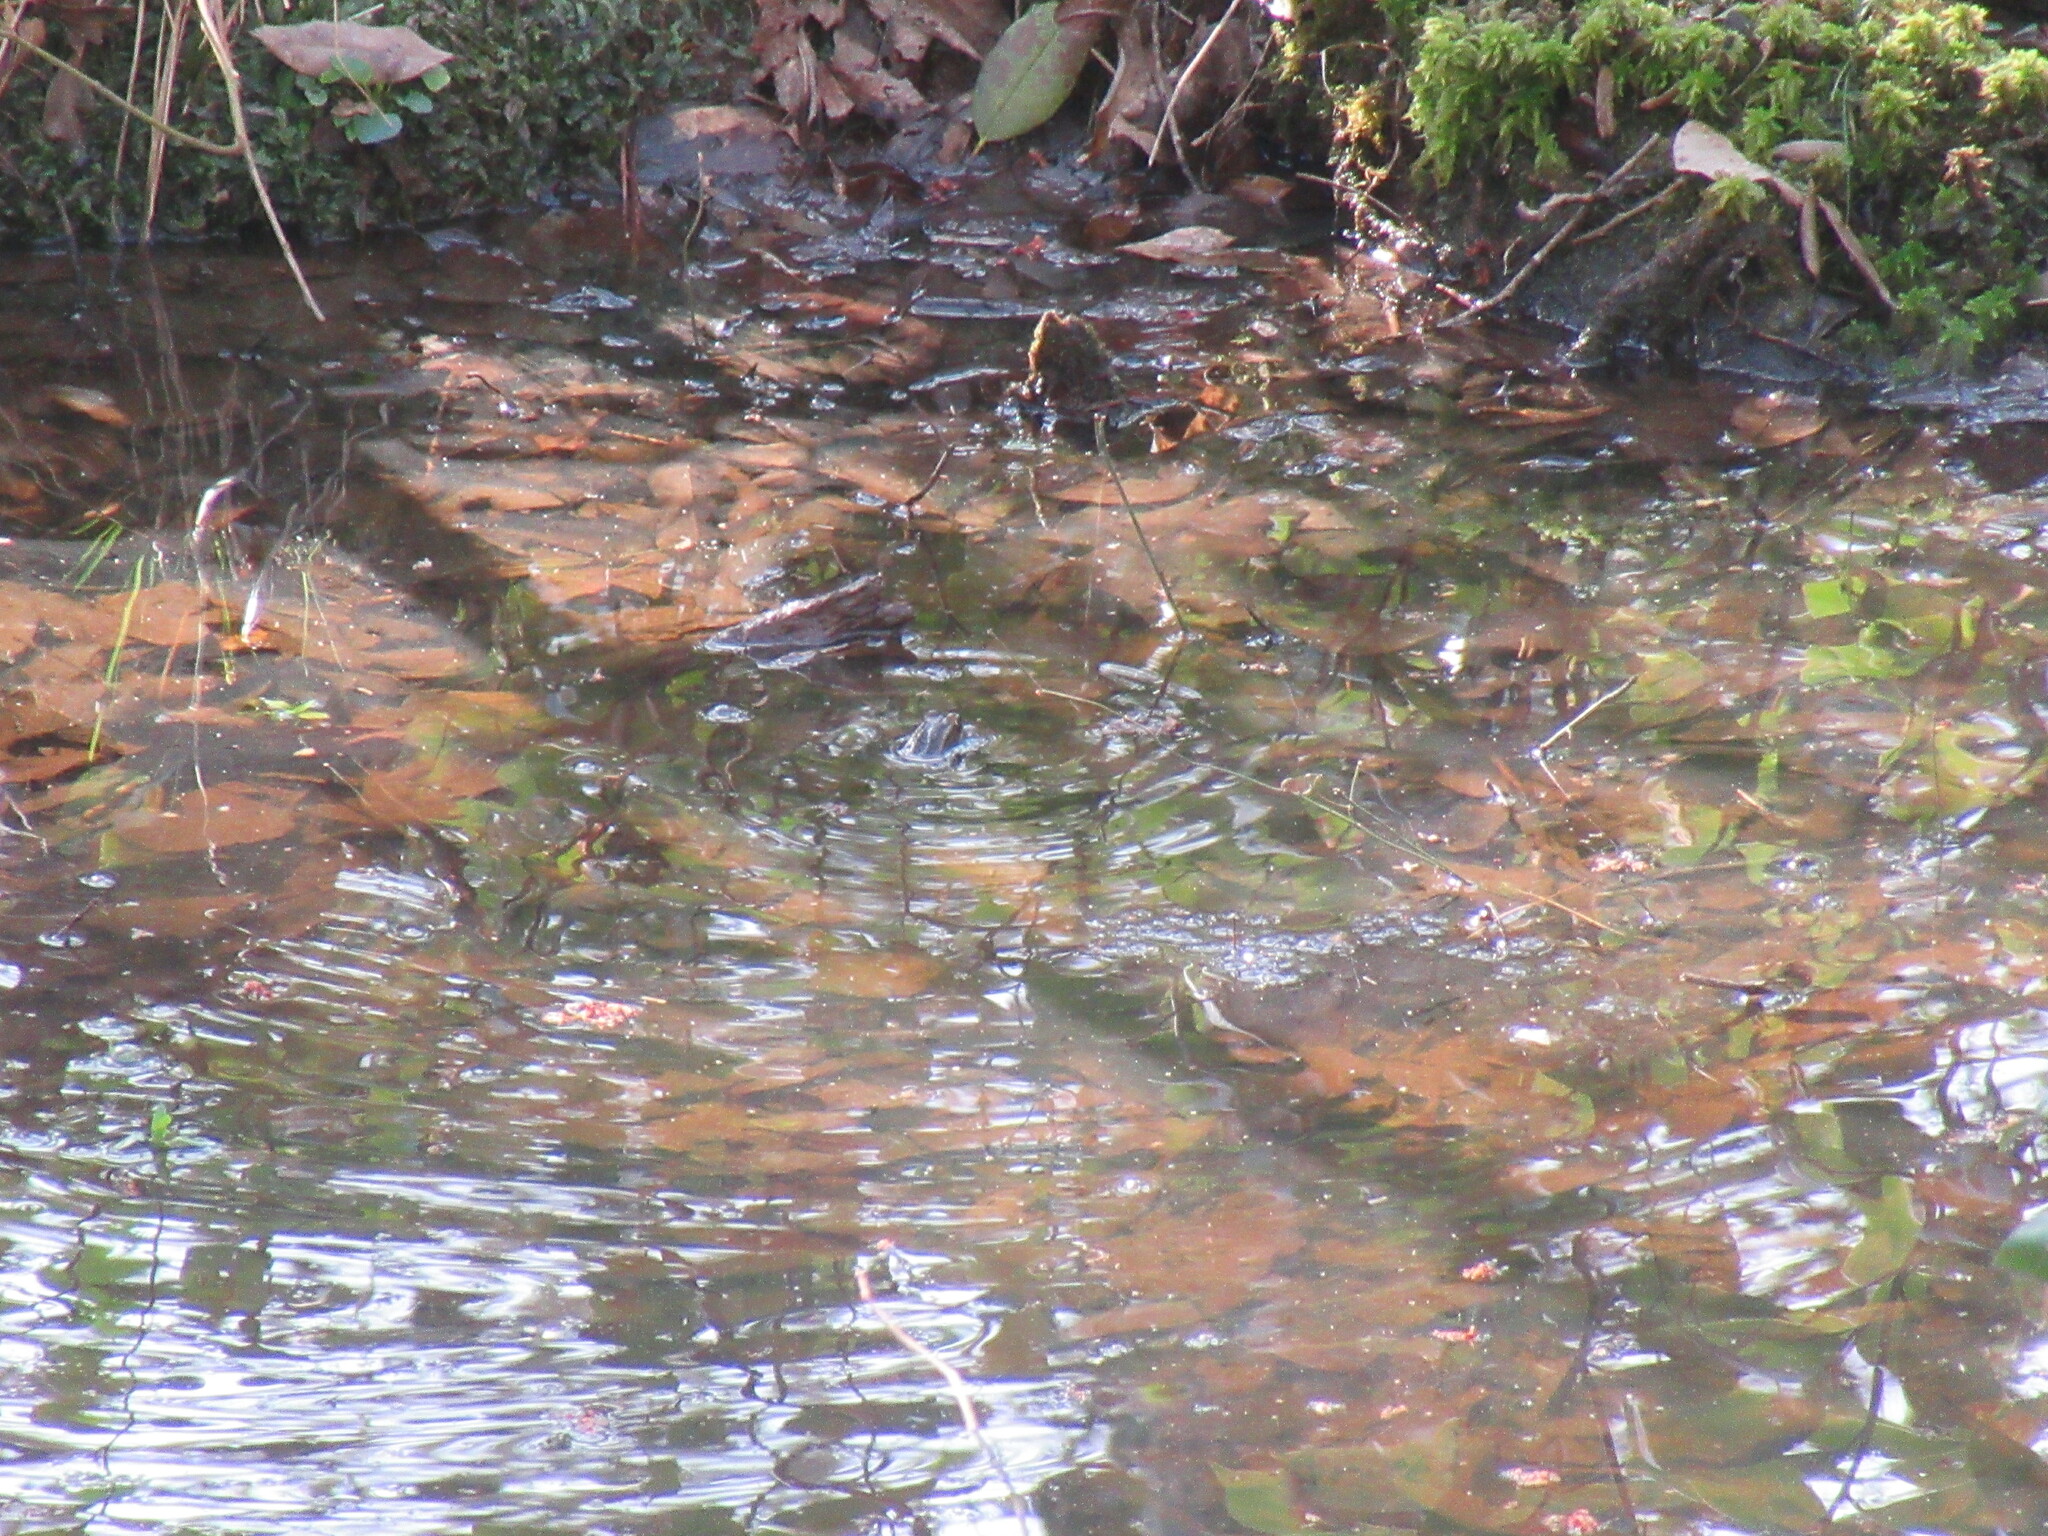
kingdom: Animalia
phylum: Chordata
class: Amphibia
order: Anura
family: Ranidae
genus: Lithobates
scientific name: Lithobates sphenocephalus
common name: Southern leopard frog
